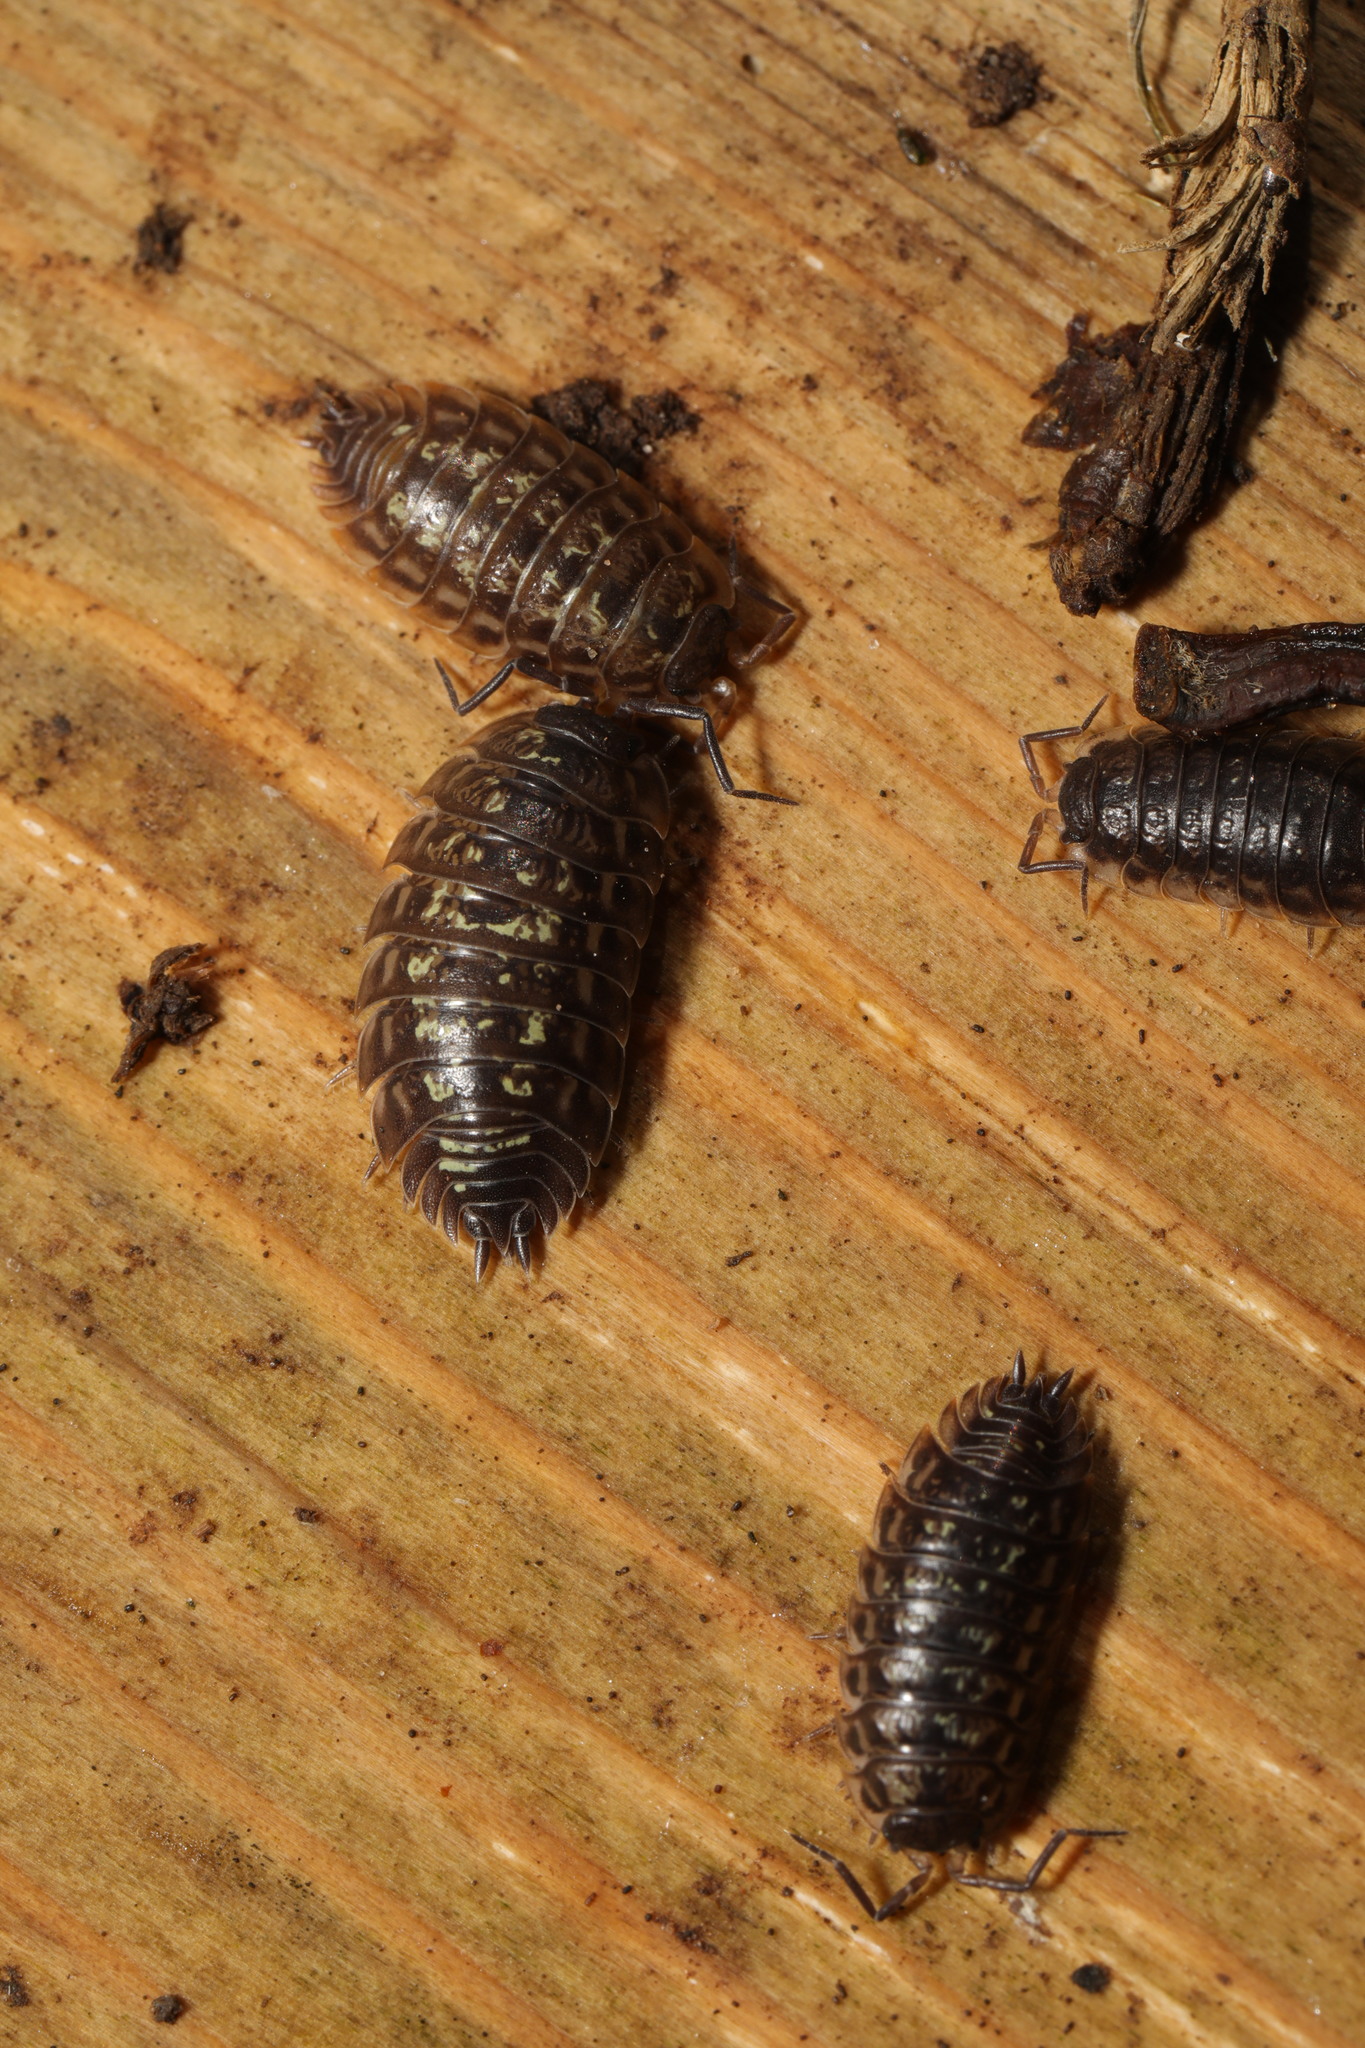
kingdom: Animalia
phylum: Arthropoda
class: Malacostraca
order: Isopoda
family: Oniscidae
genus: Oniscus
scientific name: Oniscus asellus
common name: Common shiny woodlouse
